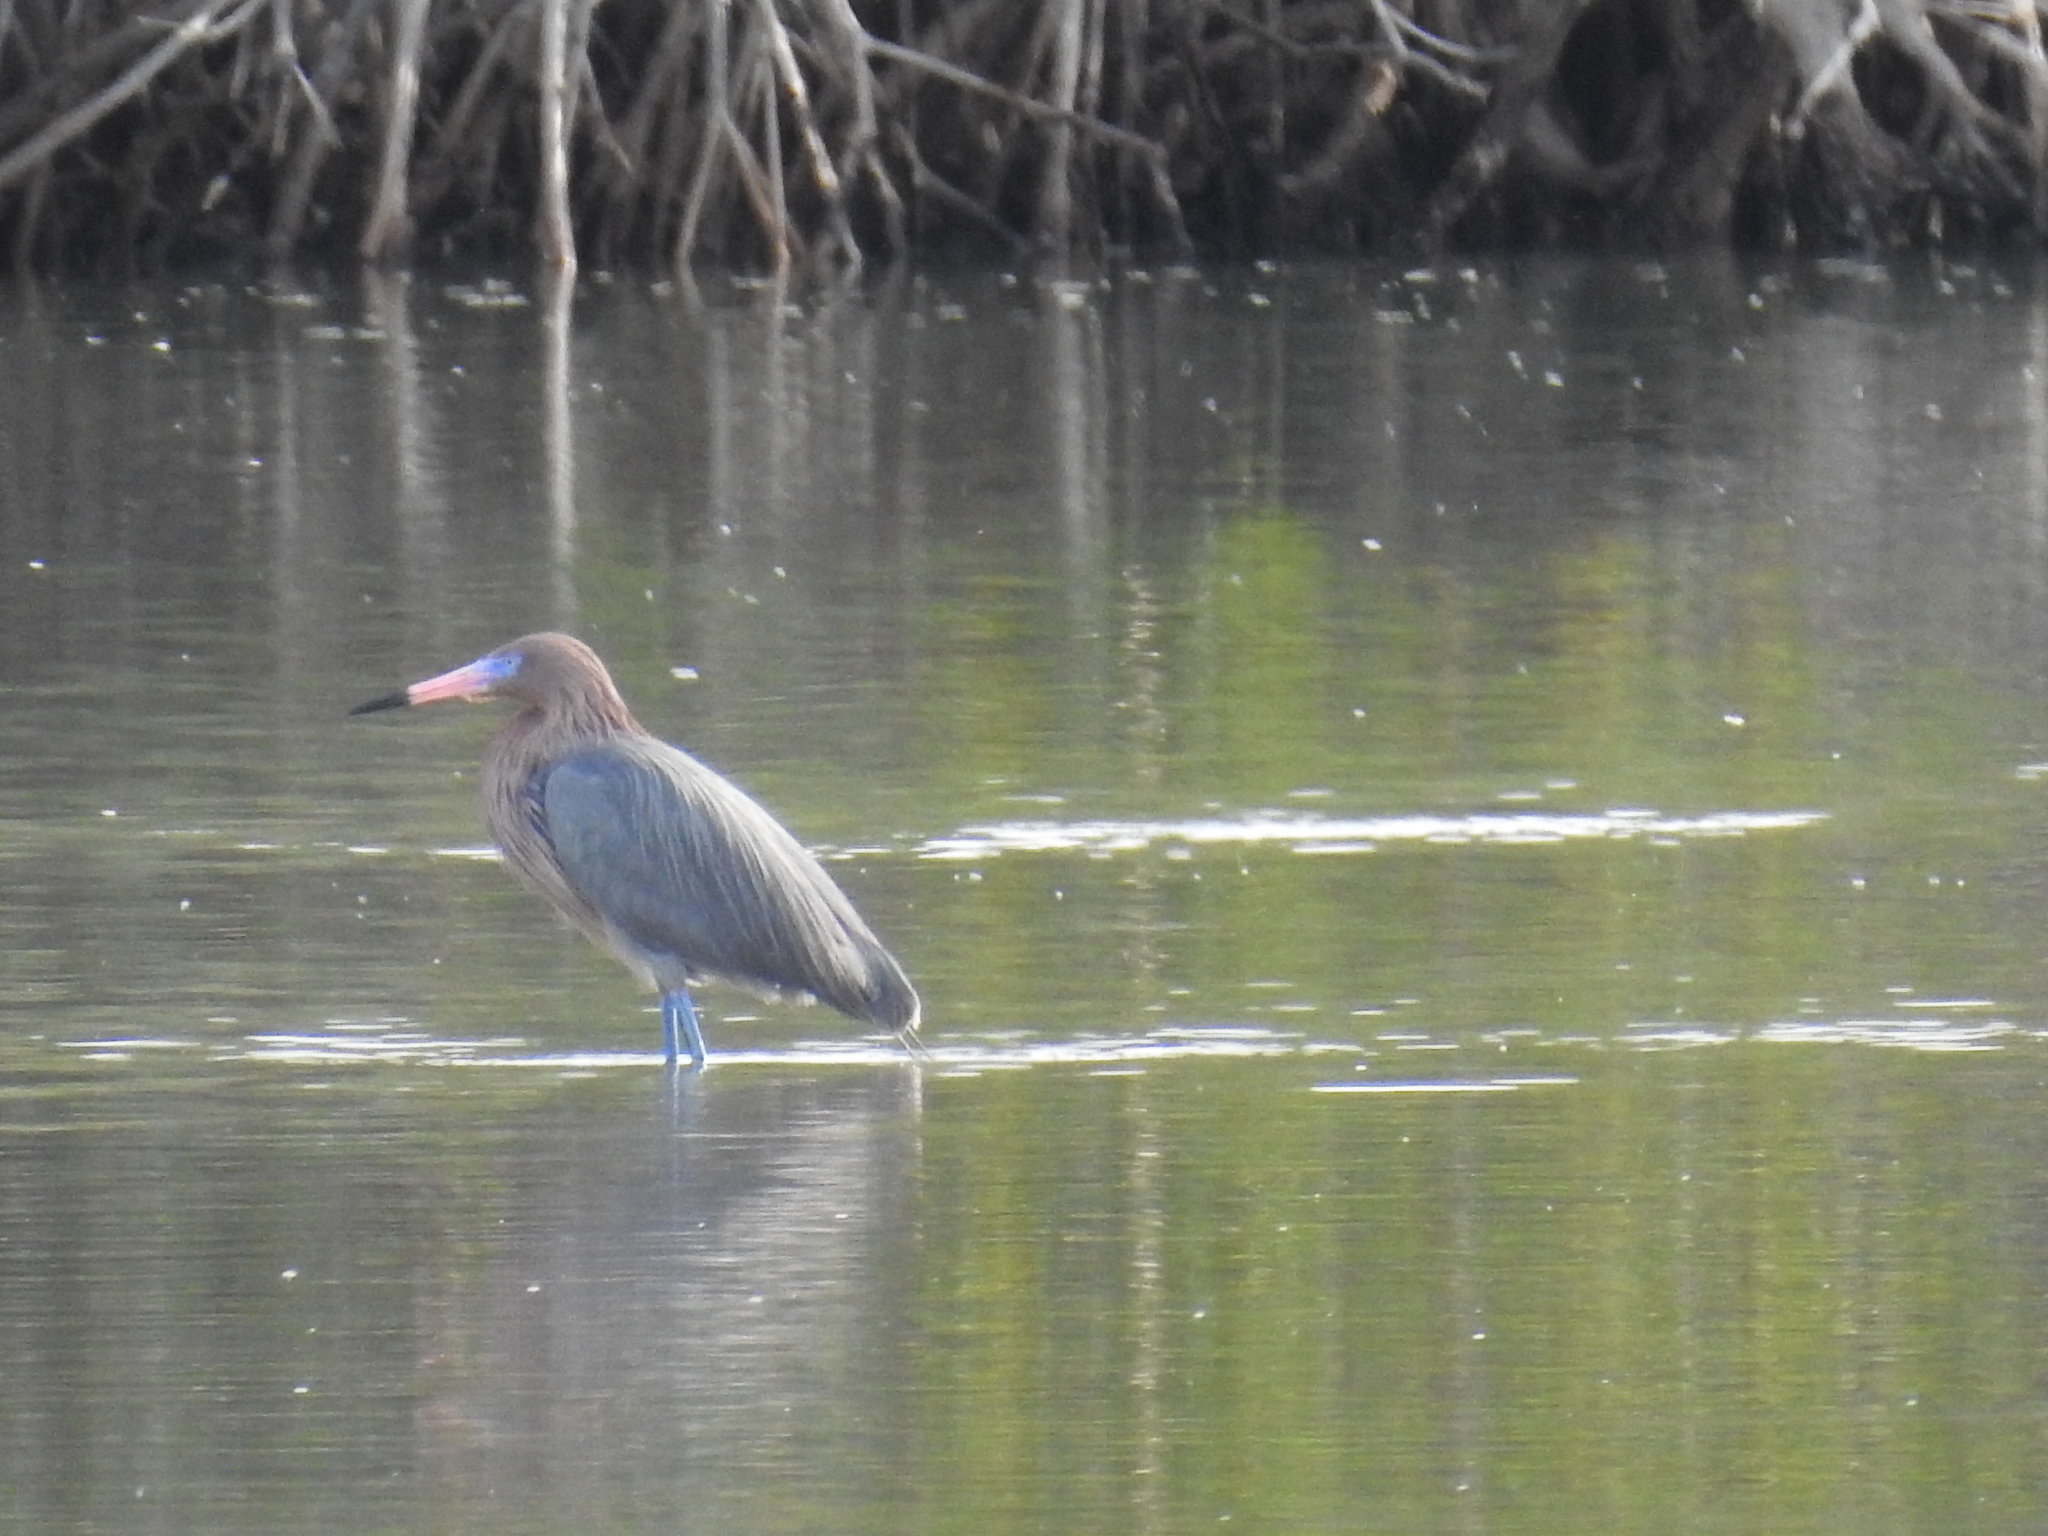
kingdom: Animalia
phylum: Chordata
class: Aves
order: Pelecaniformes
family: Ardeidae
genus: Egretta
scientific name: Egretta rufescens
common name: Reddish egret
